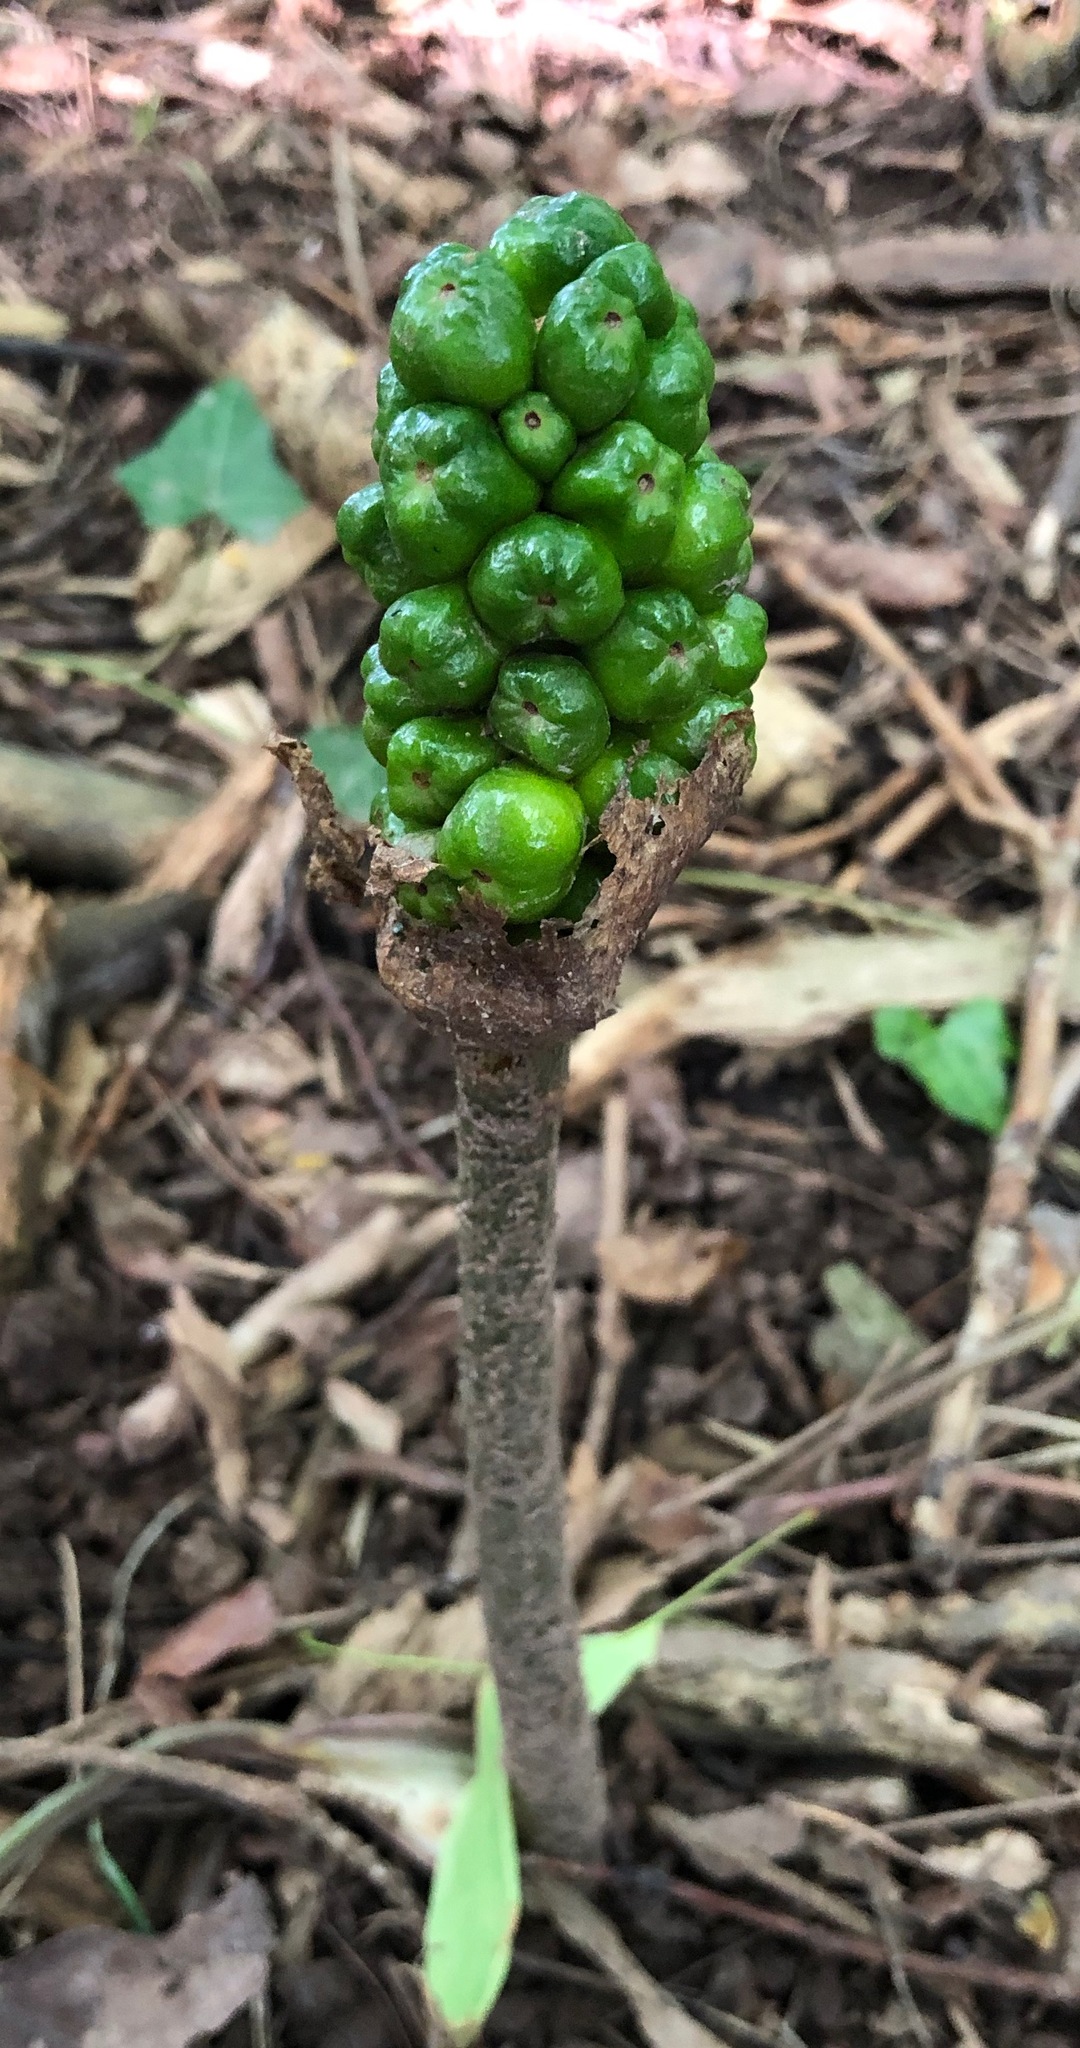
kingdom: Plantae
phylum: Tracheophyta
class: Liliopsida
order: Alismatales
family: Araceae
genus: Arum
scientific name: Arum maculatum
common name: Lords-and-ladies
